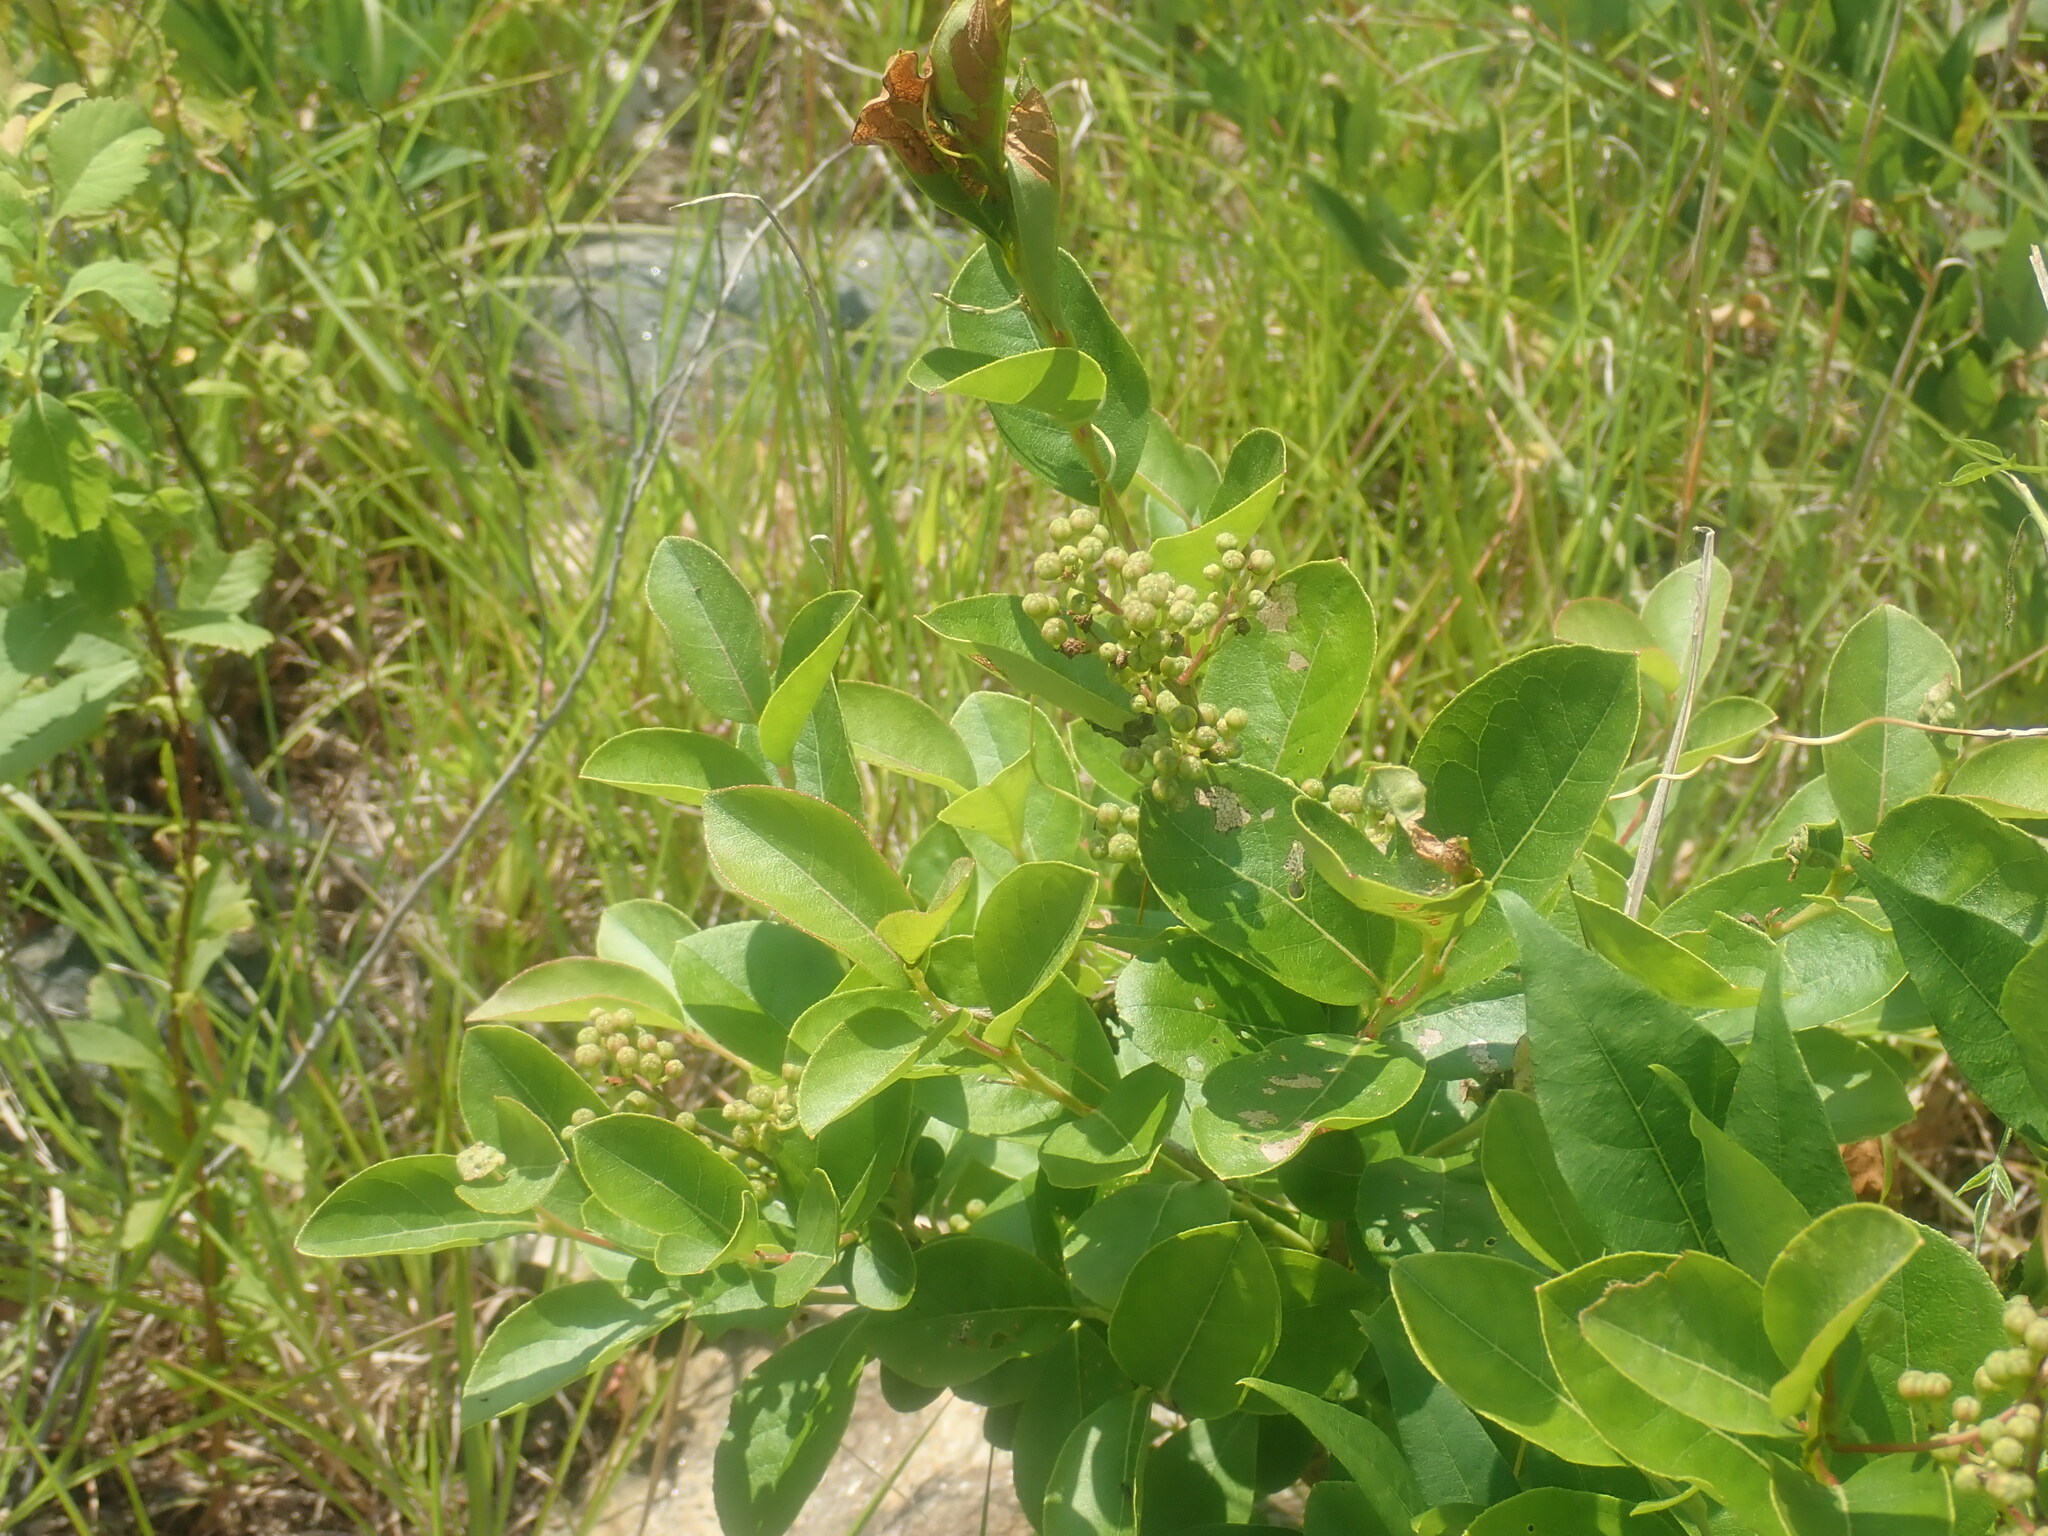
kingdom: Plantae
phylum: Tracheophyta
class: Magnoliopsida
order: Ericales
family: Ericaceae
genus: Lyonia
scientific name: Lyonia ligustrina
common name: Maleberry
